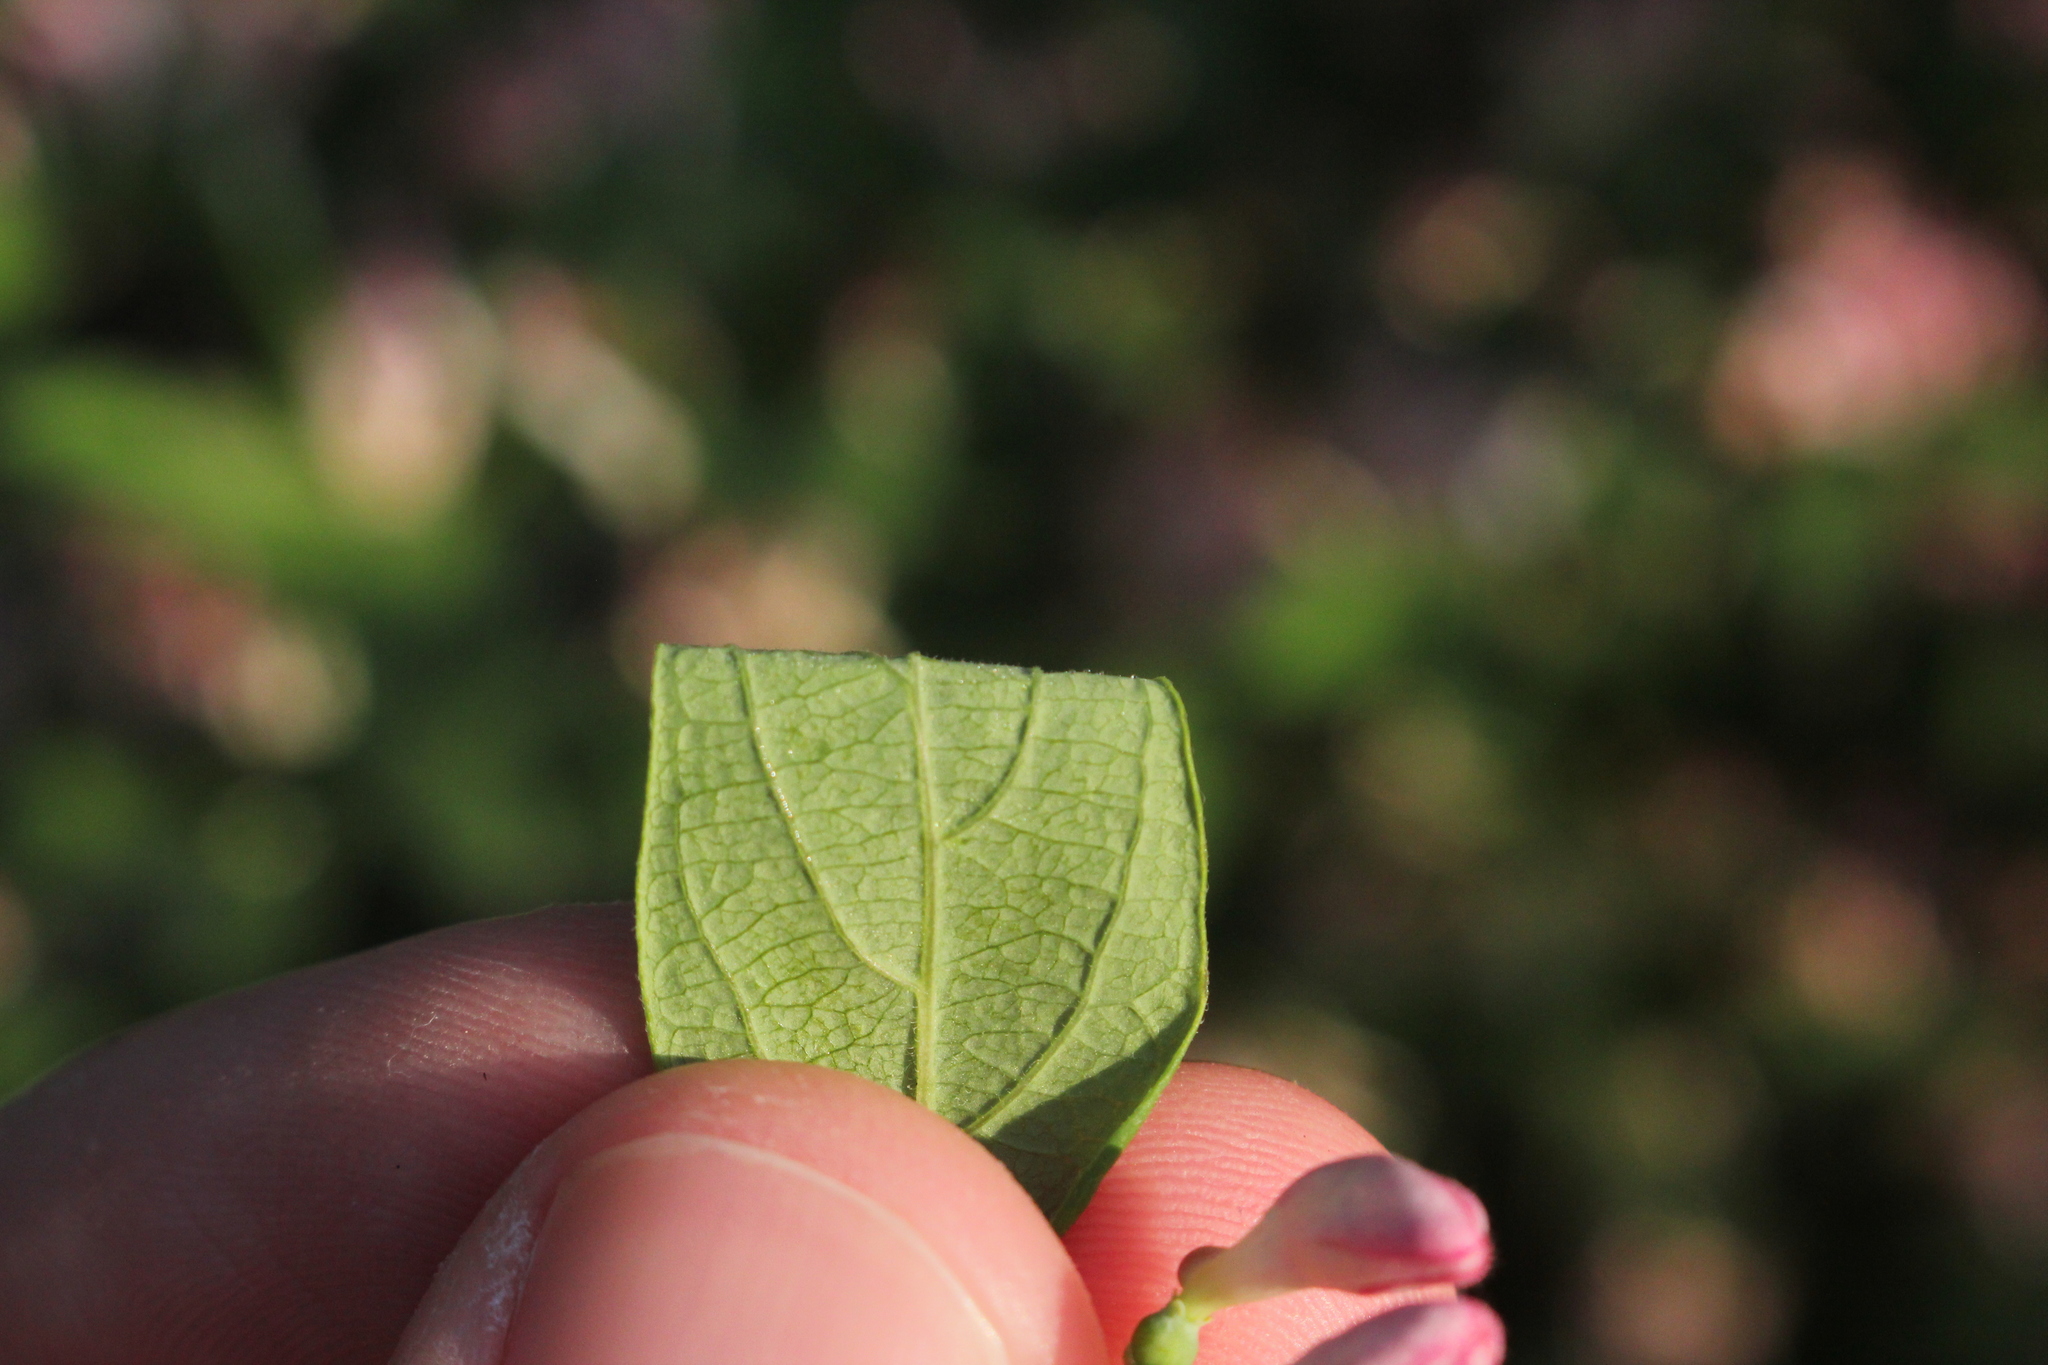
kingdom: Plantae
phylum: Tracheophyta
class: Magnoliopsida
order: Dipsacales
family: Caprifoliaceae
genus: Lonicera
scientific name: Lonicera bella
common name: Bell's honeysuckle
